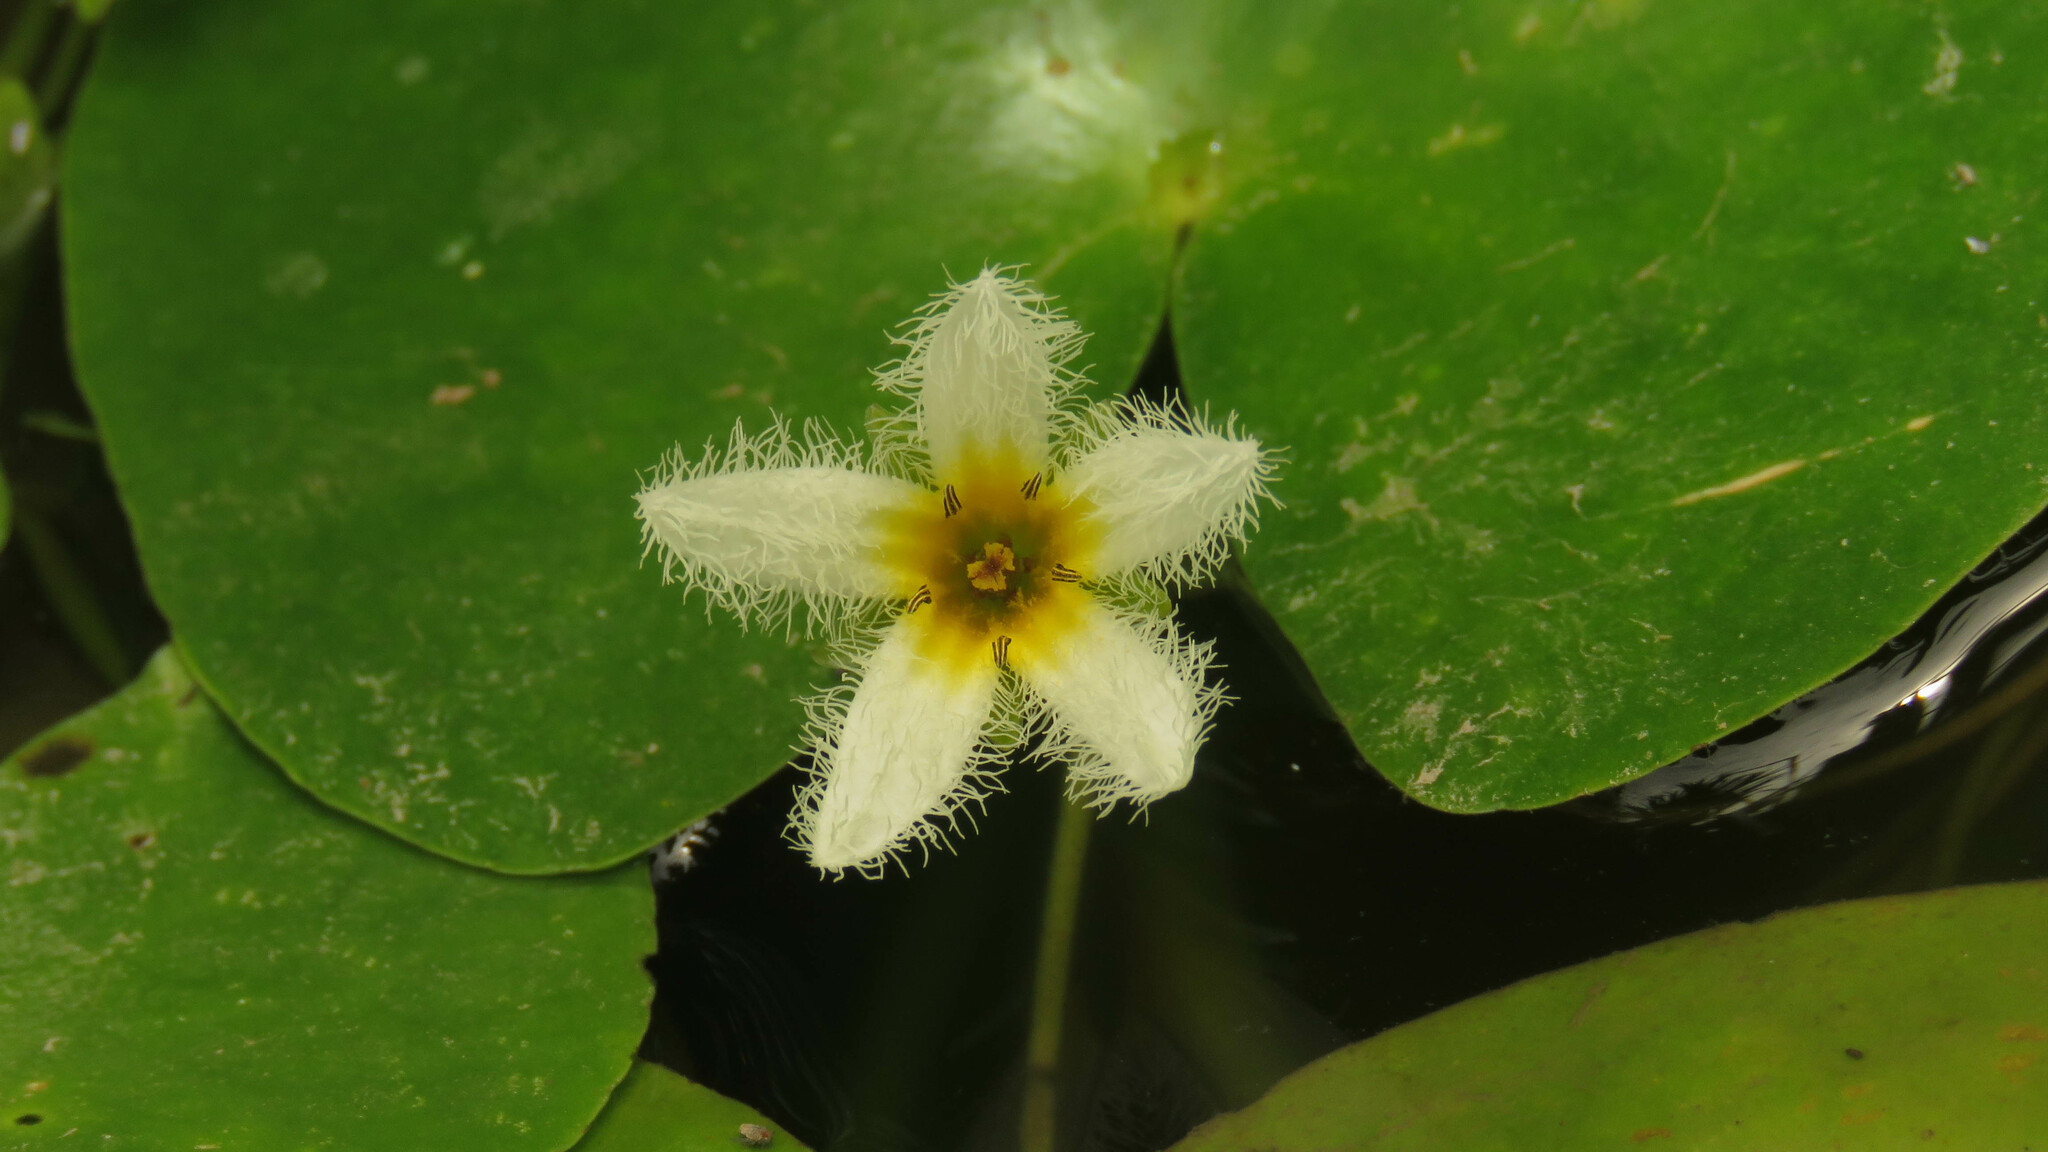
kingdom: Plantae
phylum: Tracheophyta
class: Magnoliopsida
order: Asterales
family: Menyanthaceae
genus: Nymphoides
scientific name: Nymphoides humboldtiana
